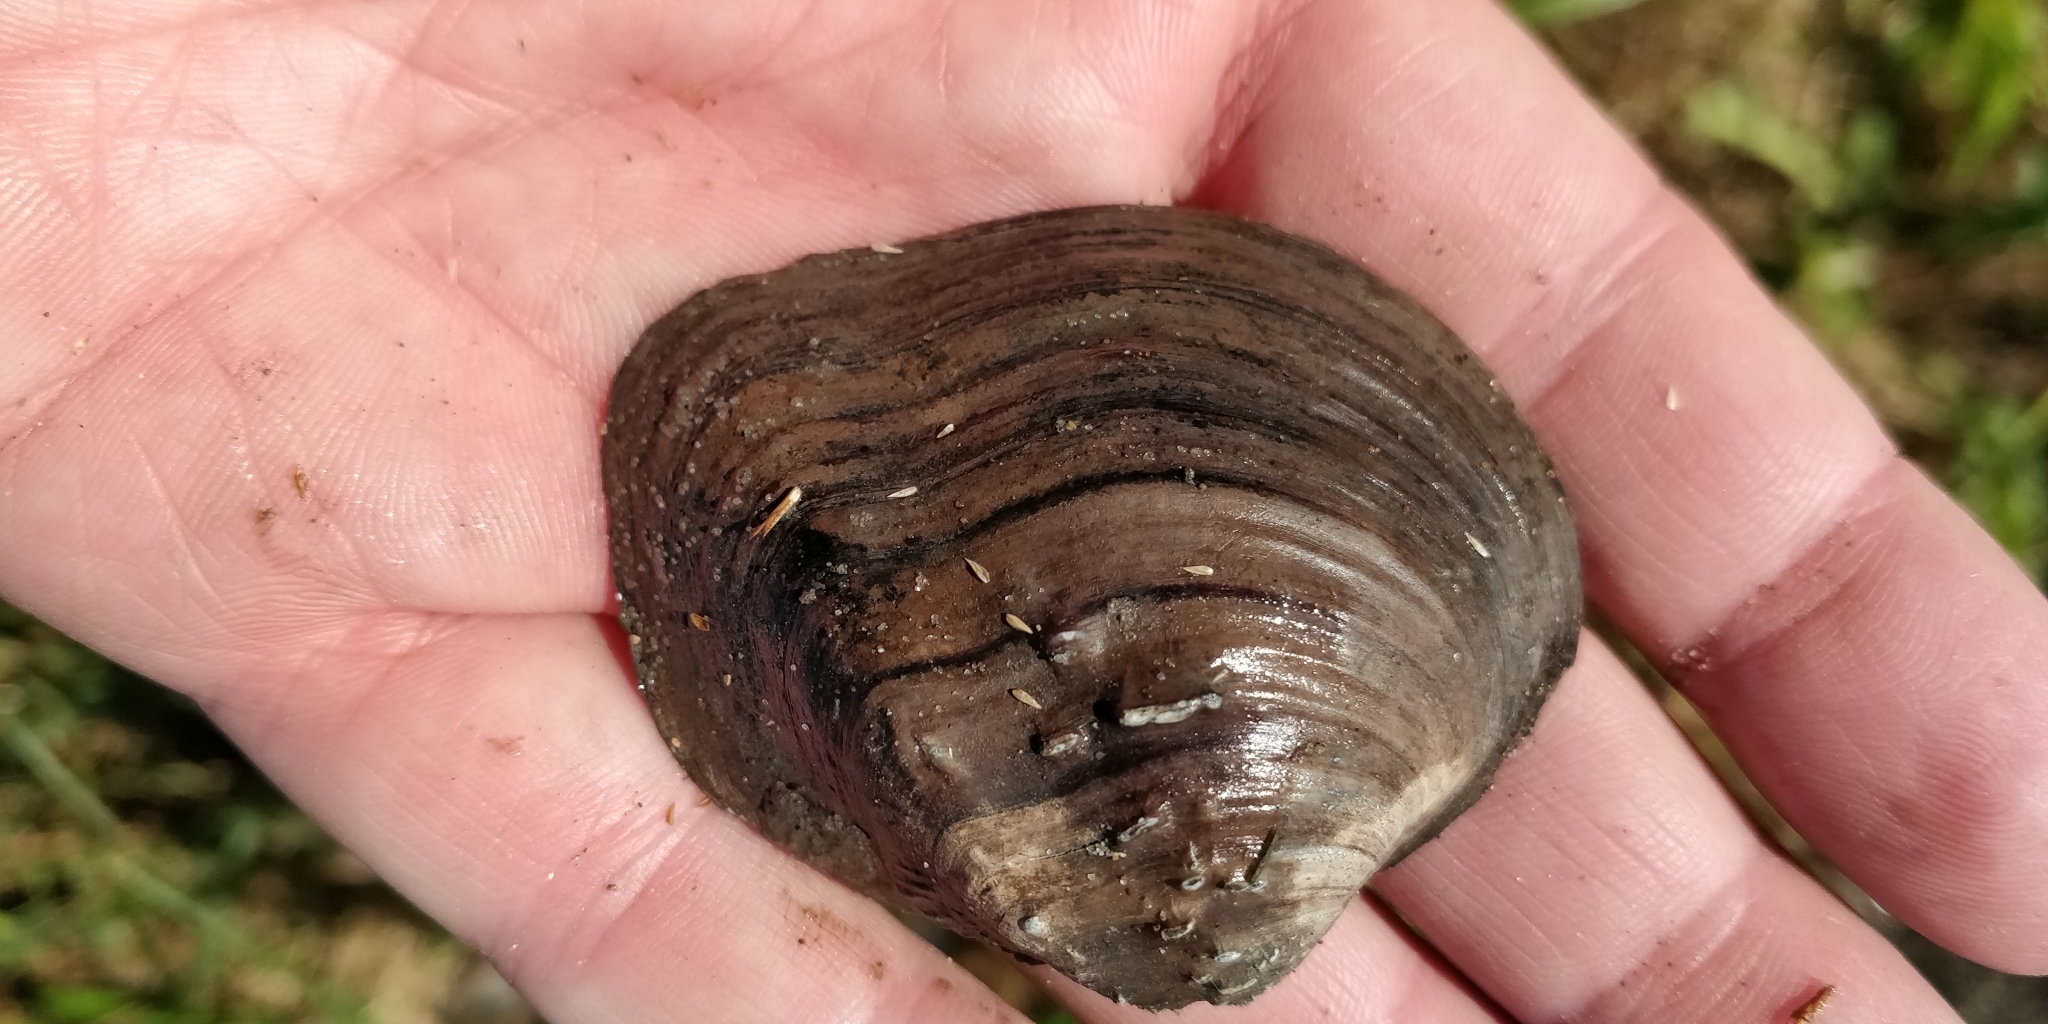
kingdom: Animalia
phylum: Mollusca
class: Bivalvia
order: Unionida
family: Unionidae
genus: Quadrula
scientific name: Quadrula quadrula
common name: Mapleleaf
